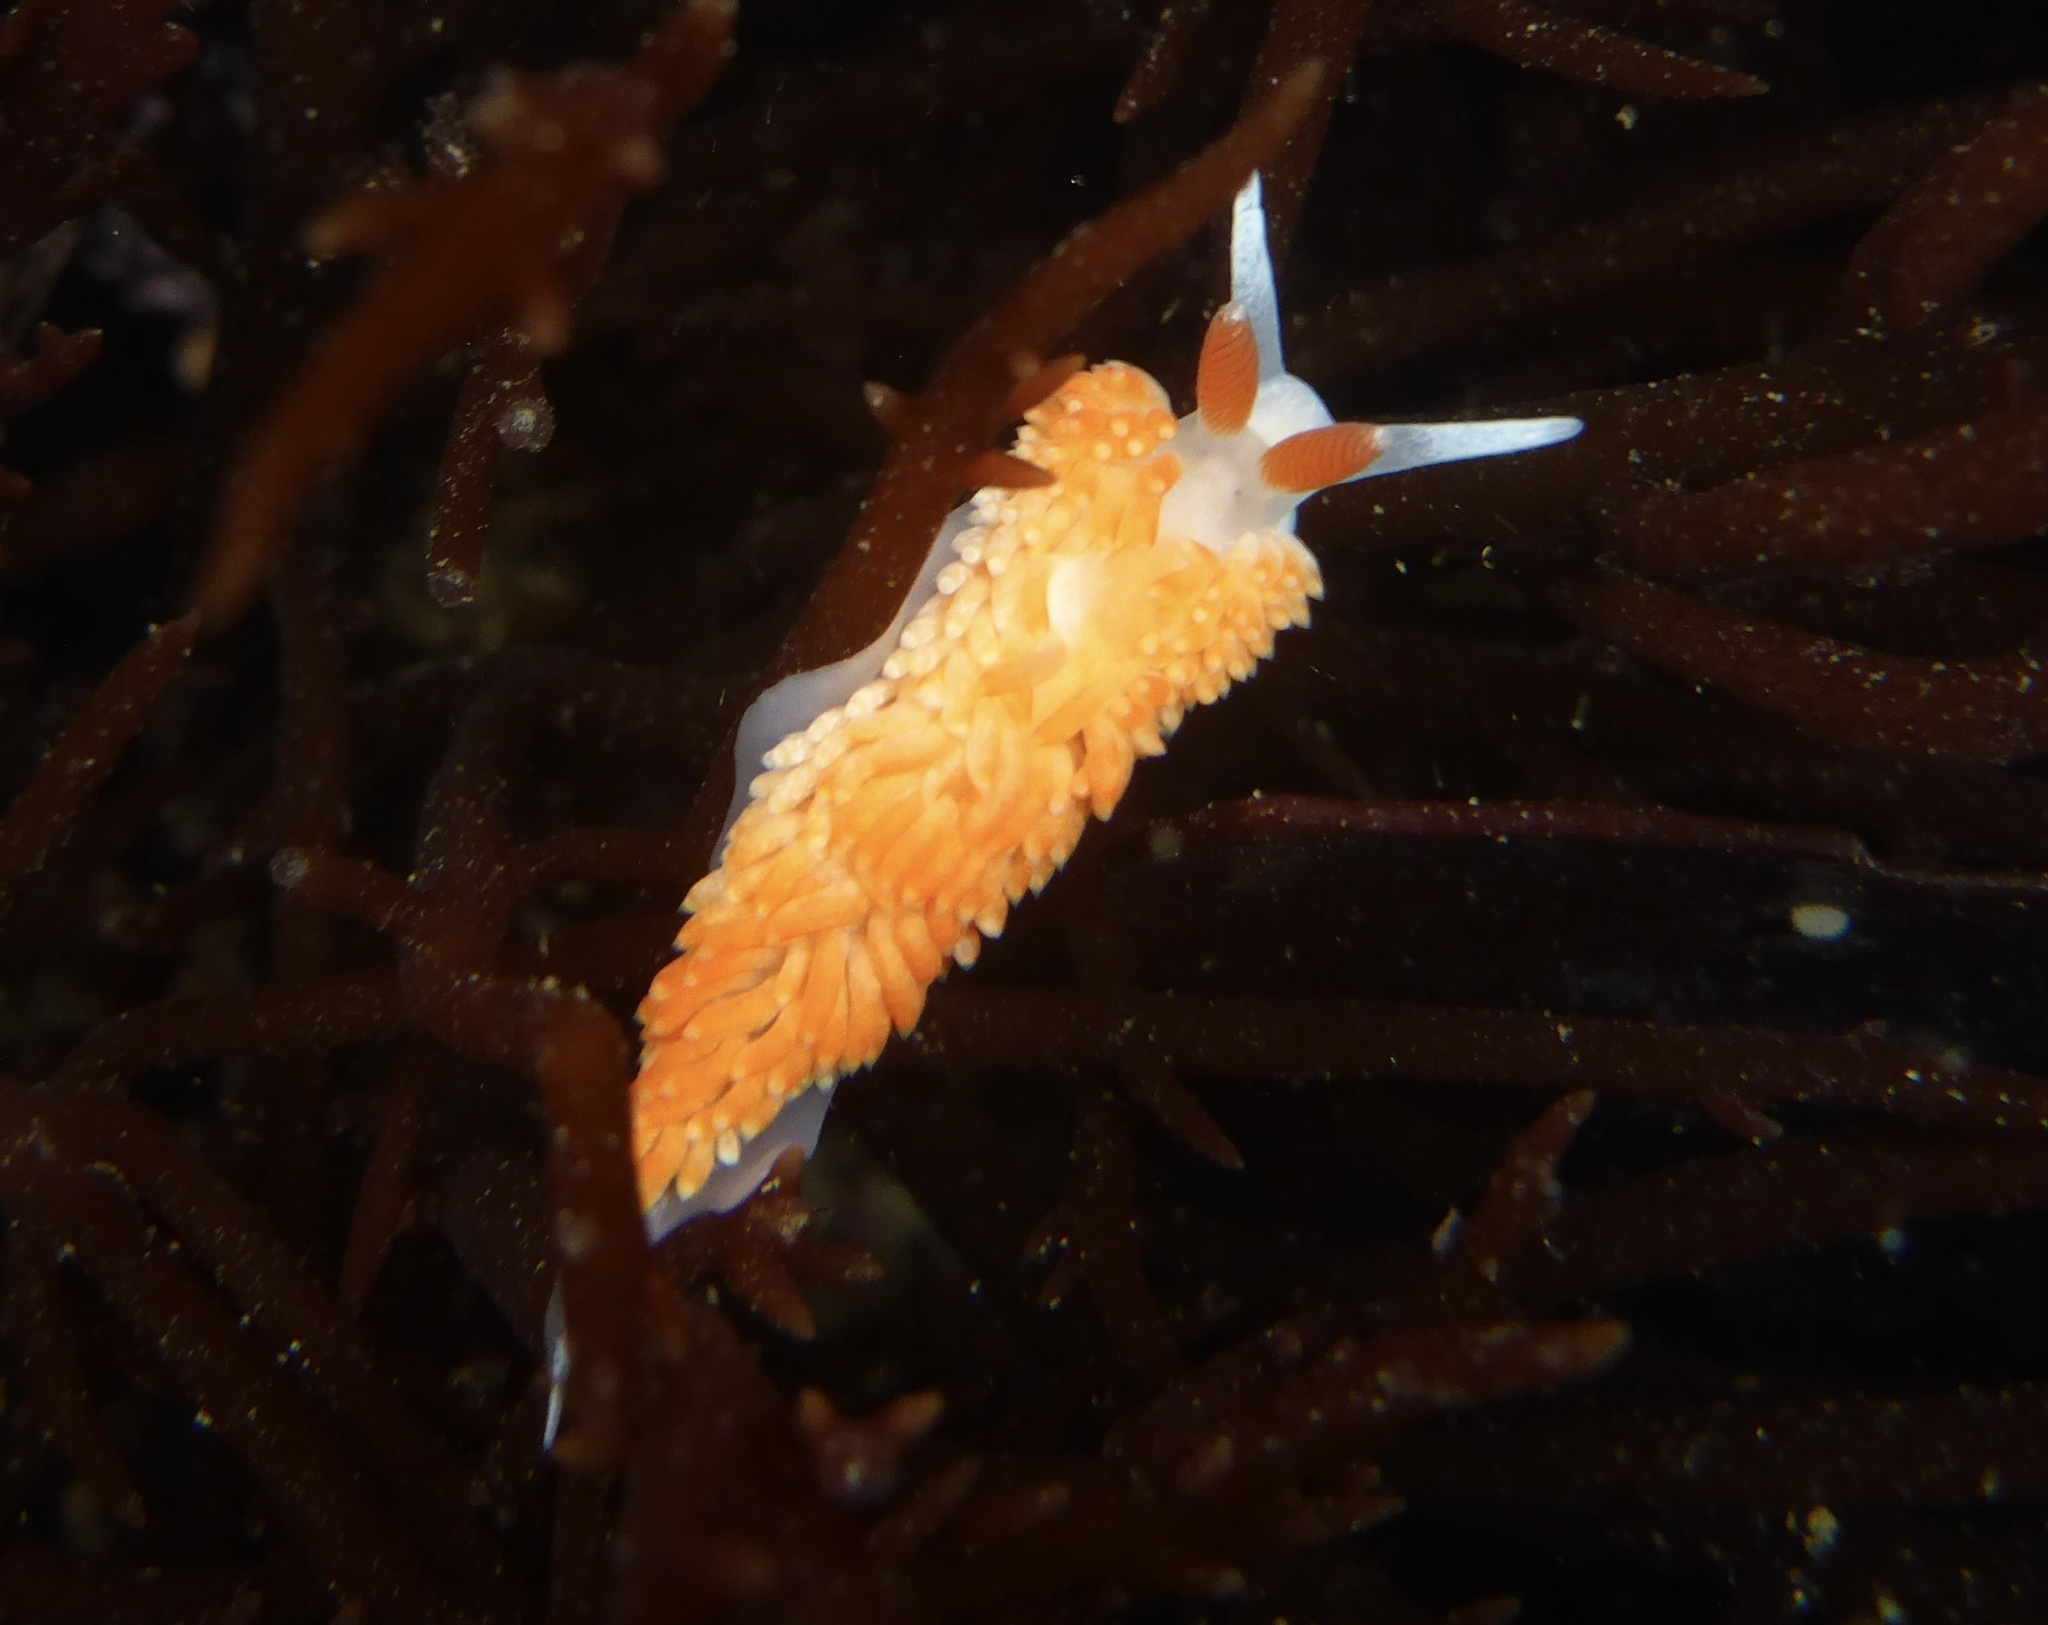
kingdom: Animalia
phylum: Mollusca
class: Gastropoda
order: Nudibranchia
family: Aeolidiidae
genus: Anteaeolidiella
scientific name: Anteaeolidiella oliviae
